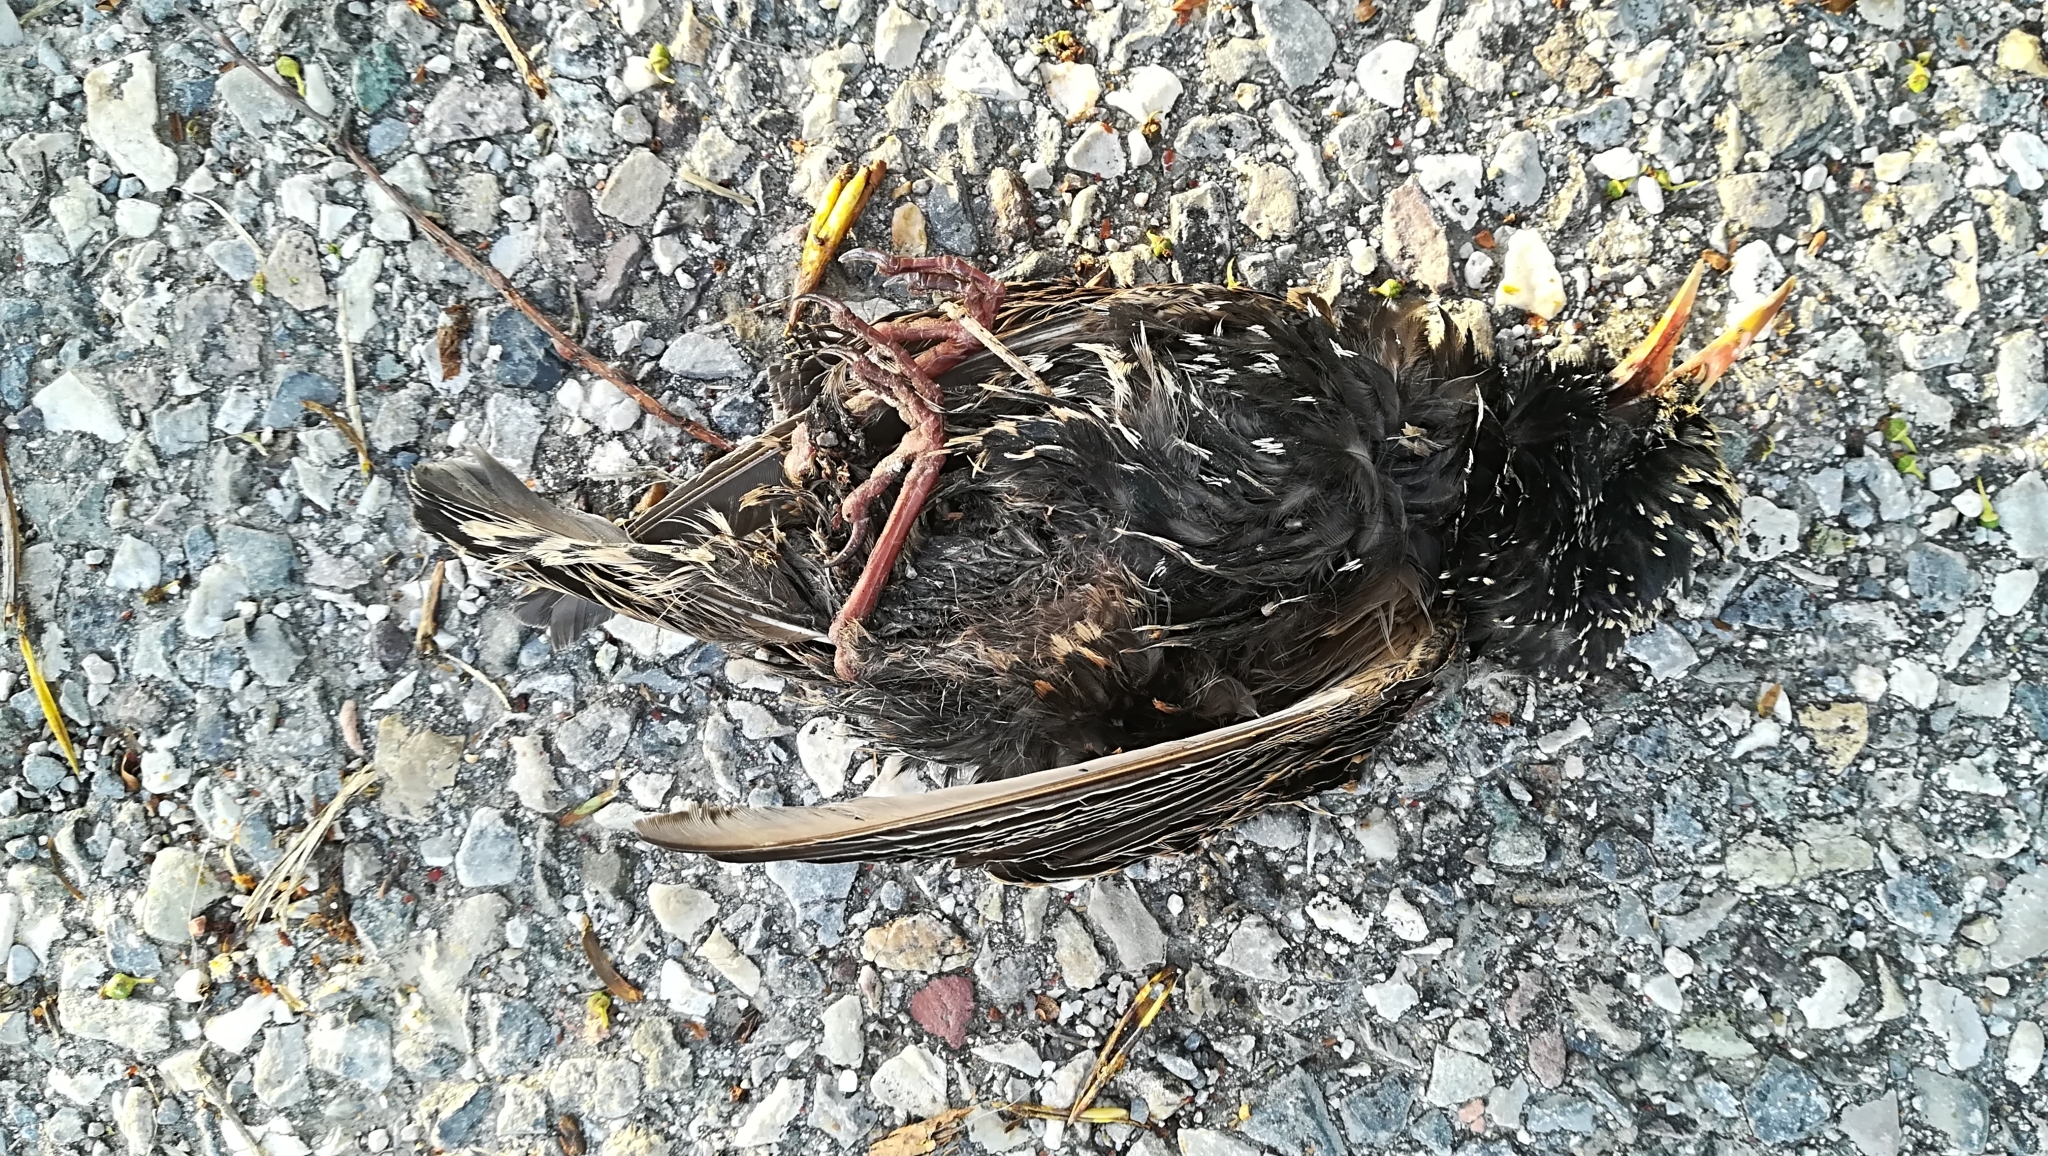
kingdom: Animalia
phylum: Chordata
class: Aves
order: Passeriformes
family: Sturnidae
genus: Sturnus
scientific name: Sturnus vulgaris
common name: Common starling
